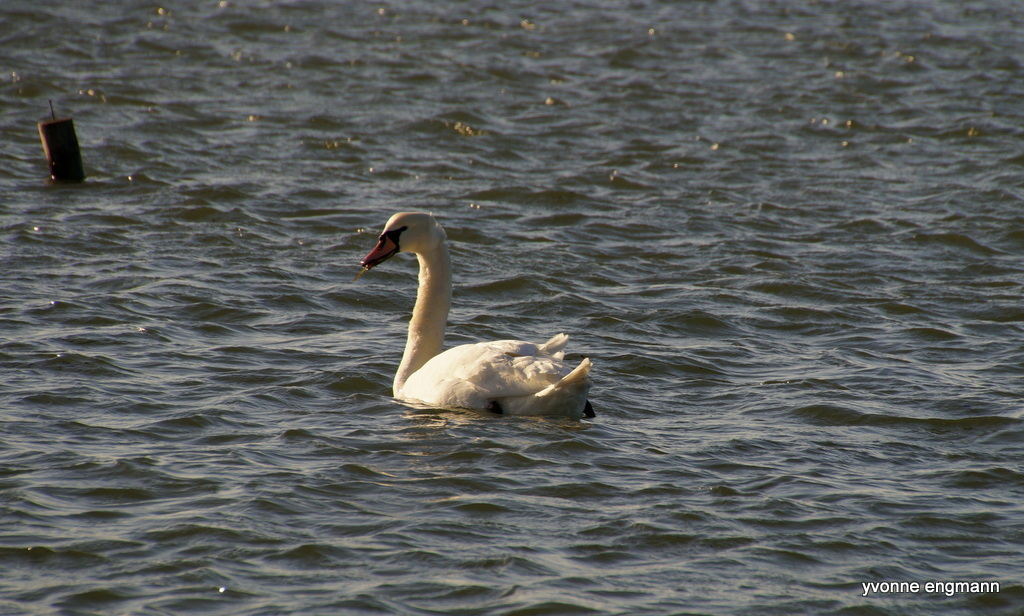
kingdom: Animalia
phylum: Chordata
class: Aves
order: Anseriformes
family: Anatidae
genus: Cygnus
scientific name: Cygnus olor
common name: Mute swan
